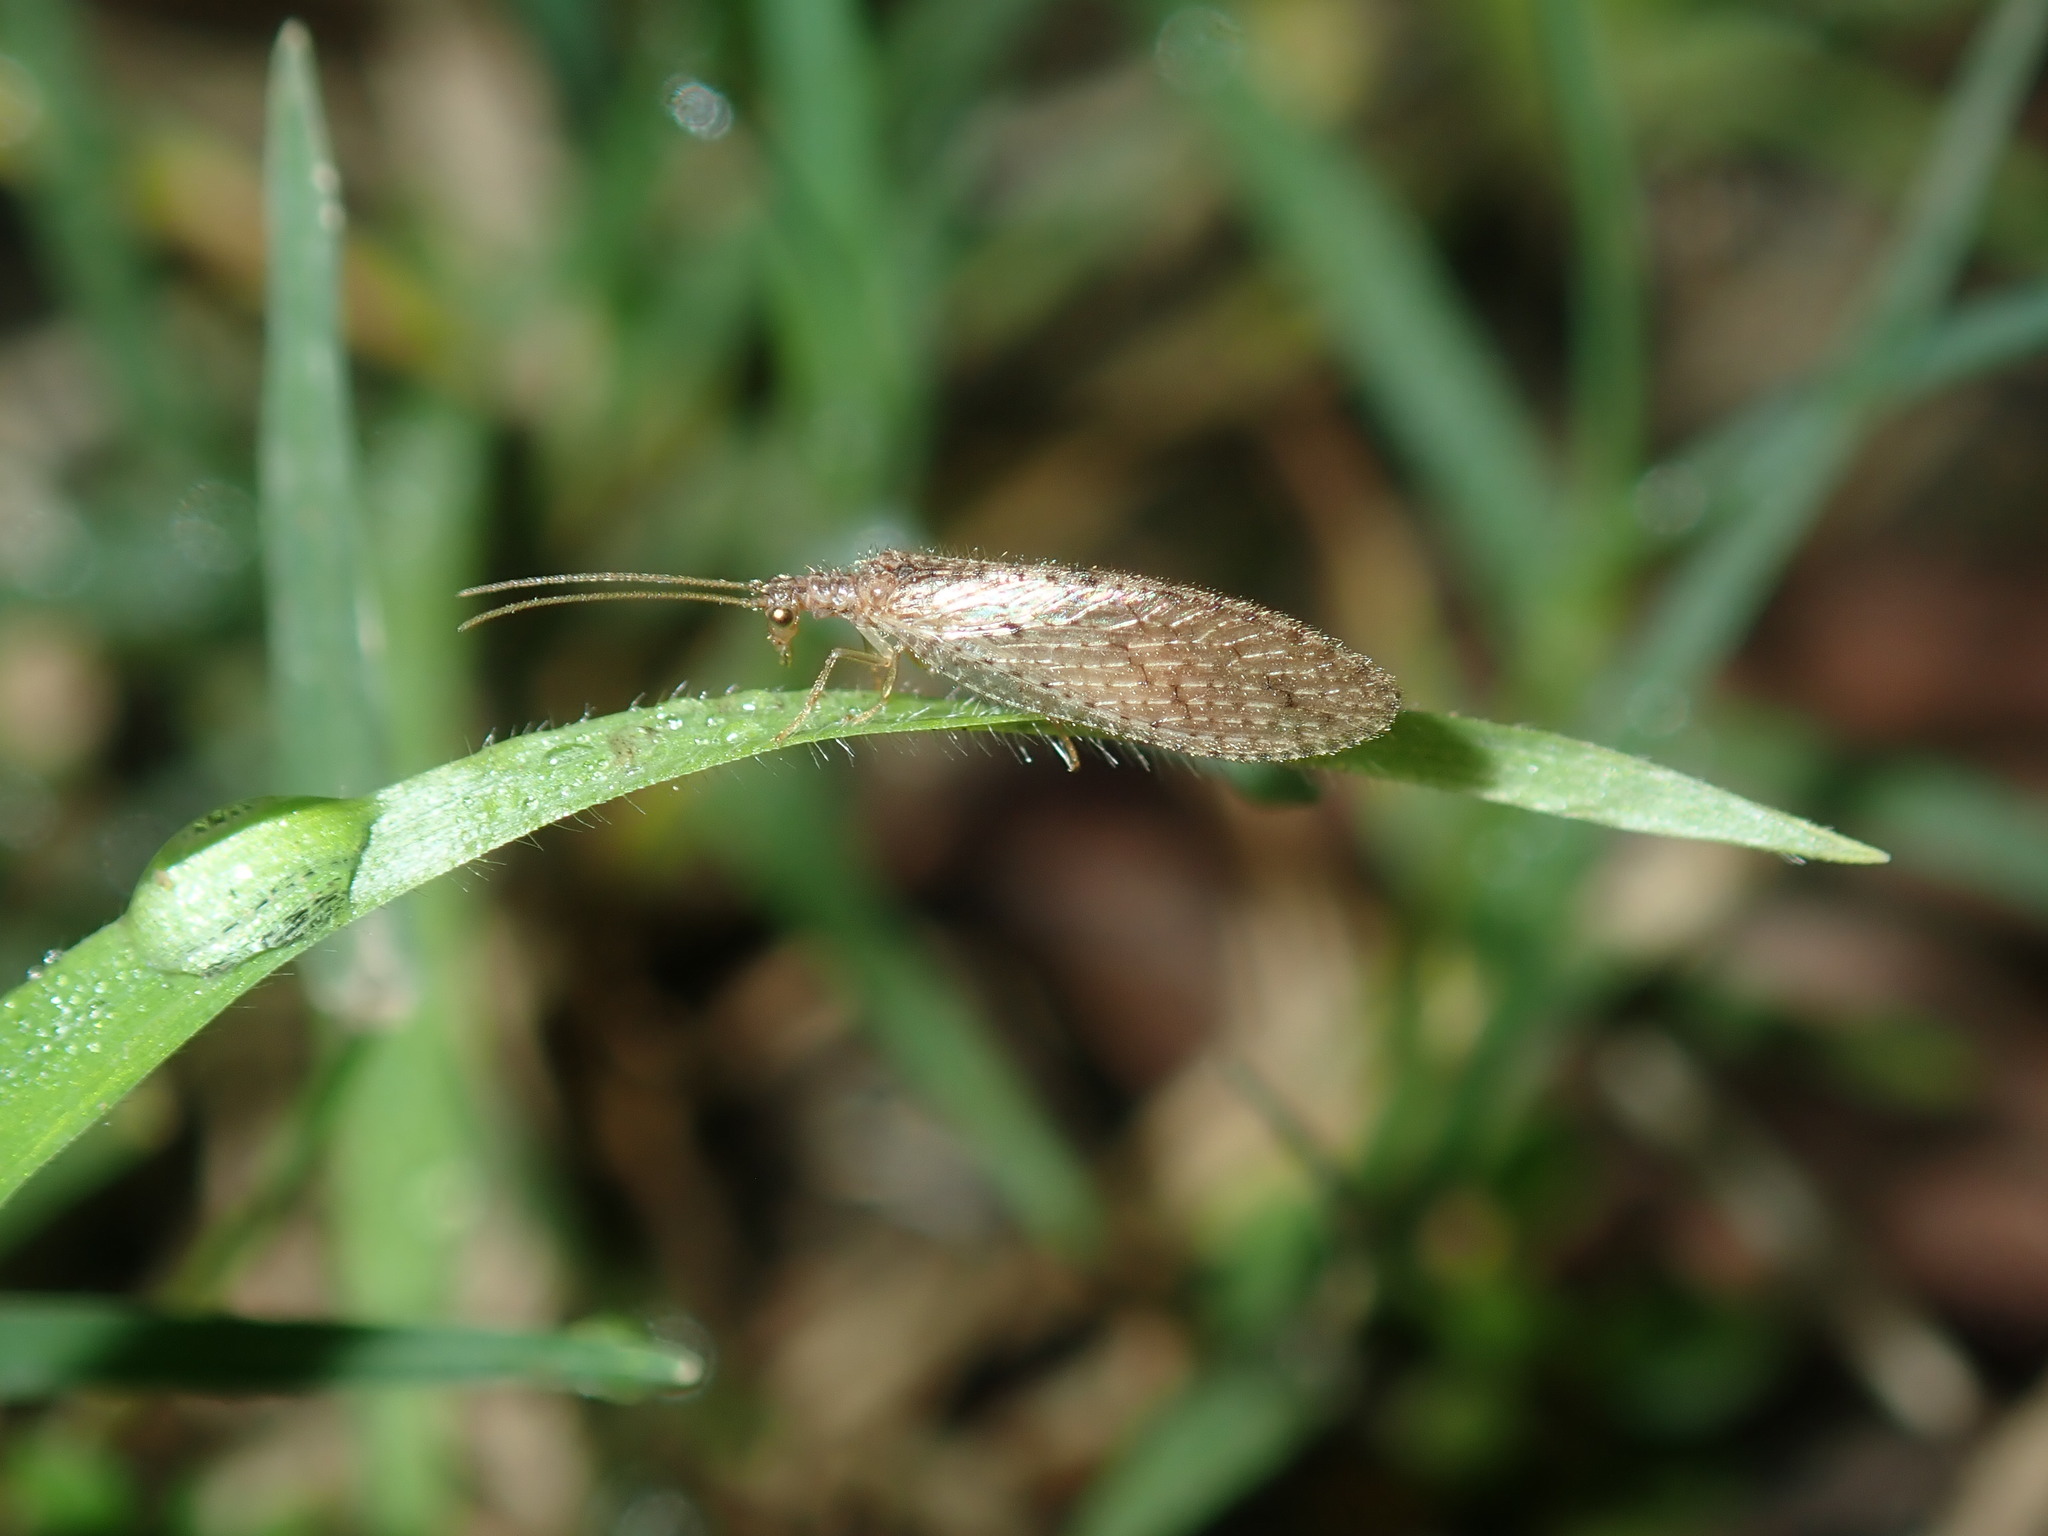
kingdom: Animalia
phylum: Arthropoda
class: Insecta
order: Neuroptera
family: Hemerobiidae
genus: Micromus
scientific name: Micromus tasmaniae
